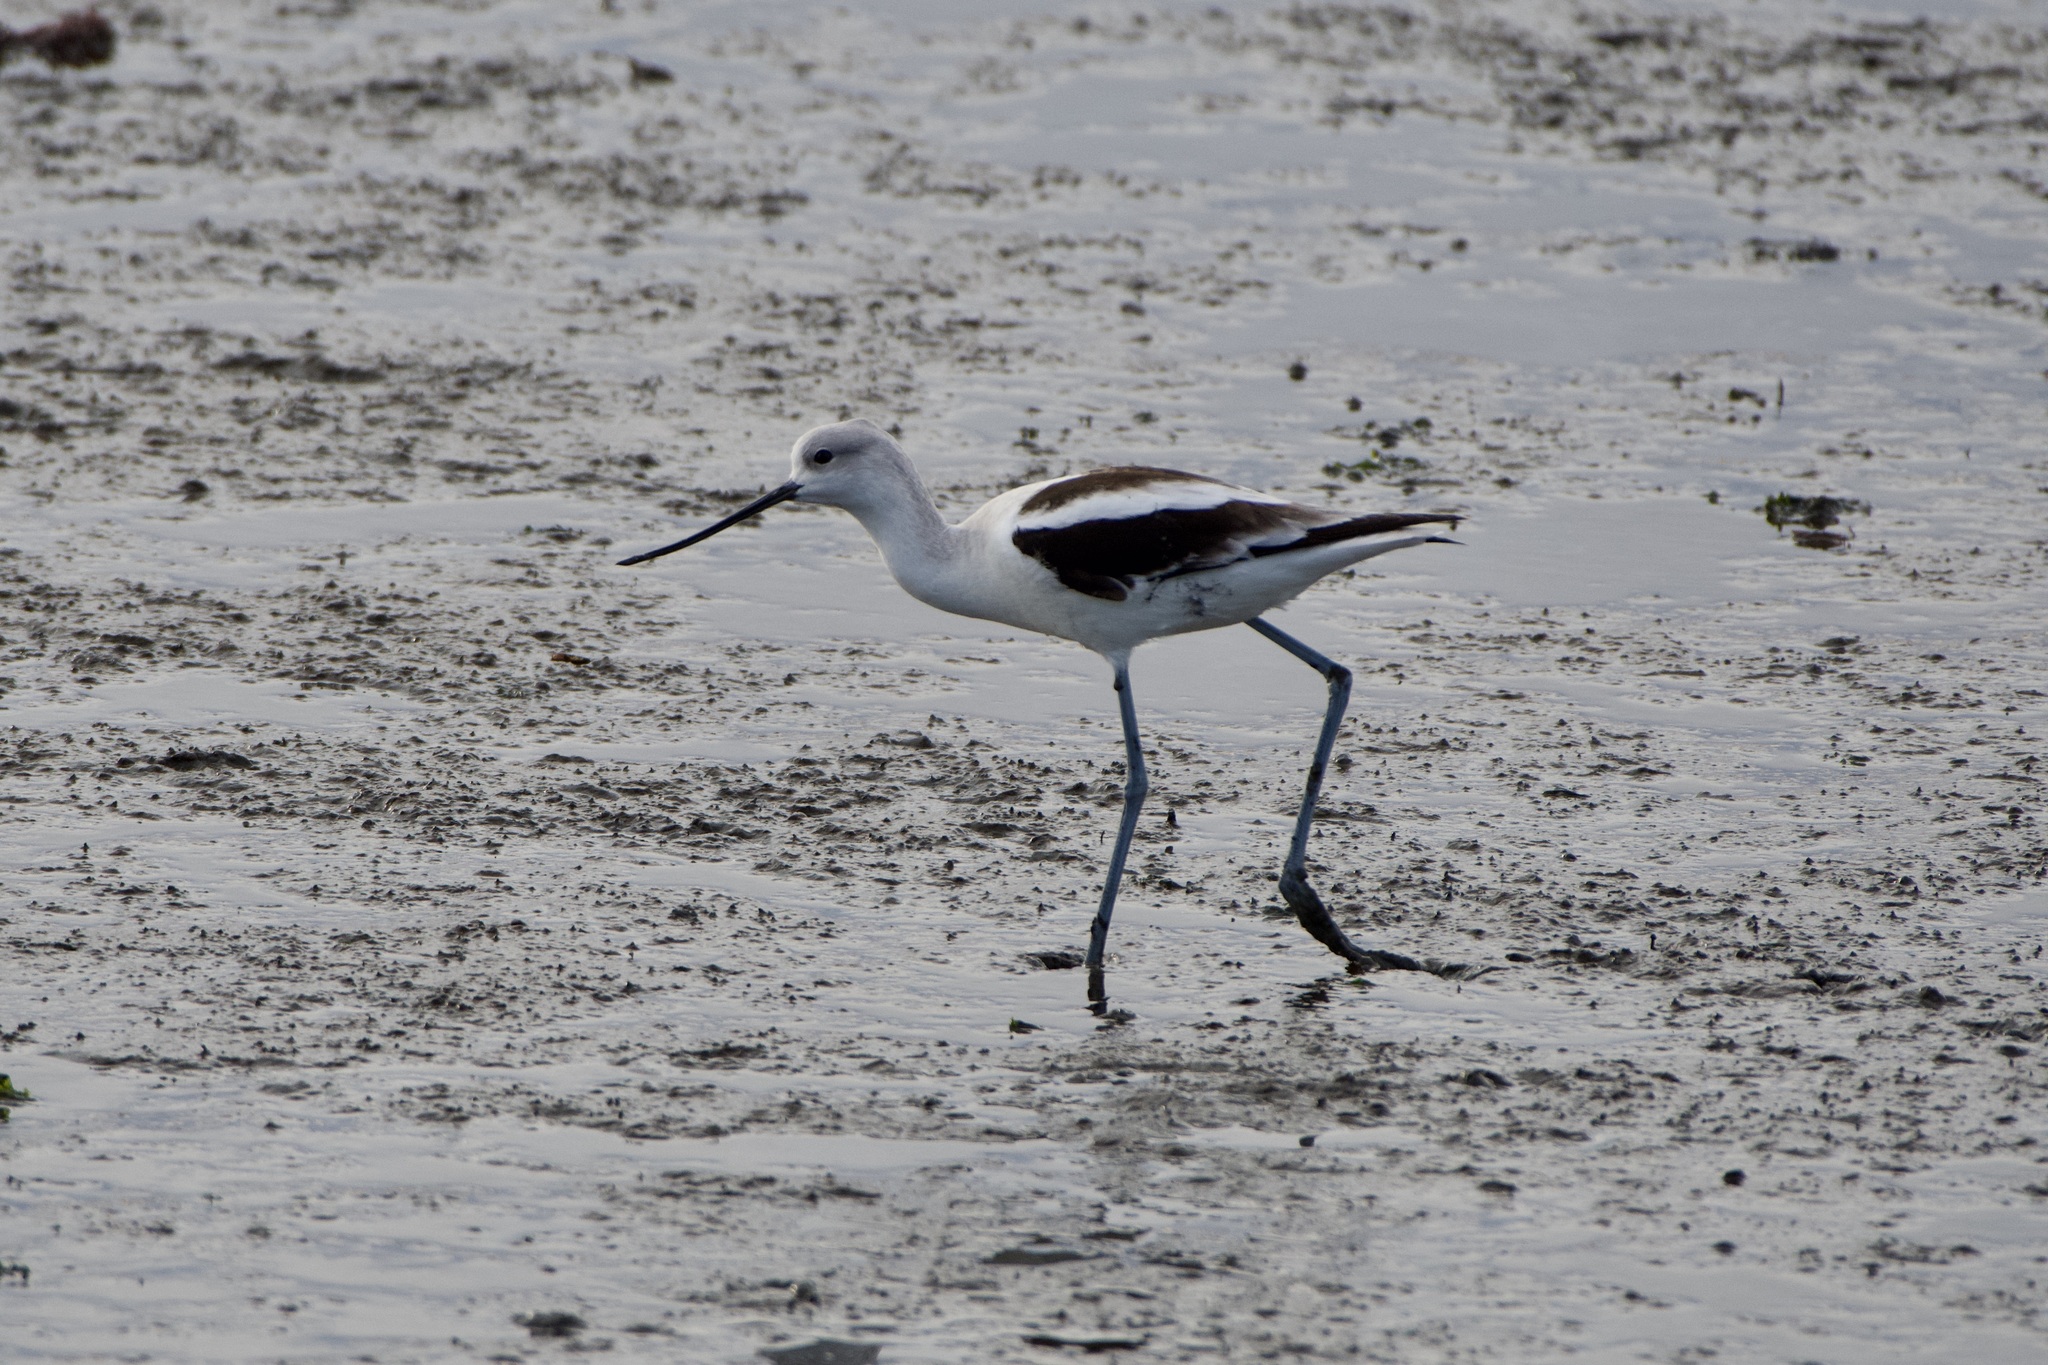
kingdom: Animalia
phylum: Chordata
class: Aves
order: Charadriiformes
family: Recurvirostridae
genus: Recurvirostra
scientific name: Recurvirostra americana
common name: American avocet
